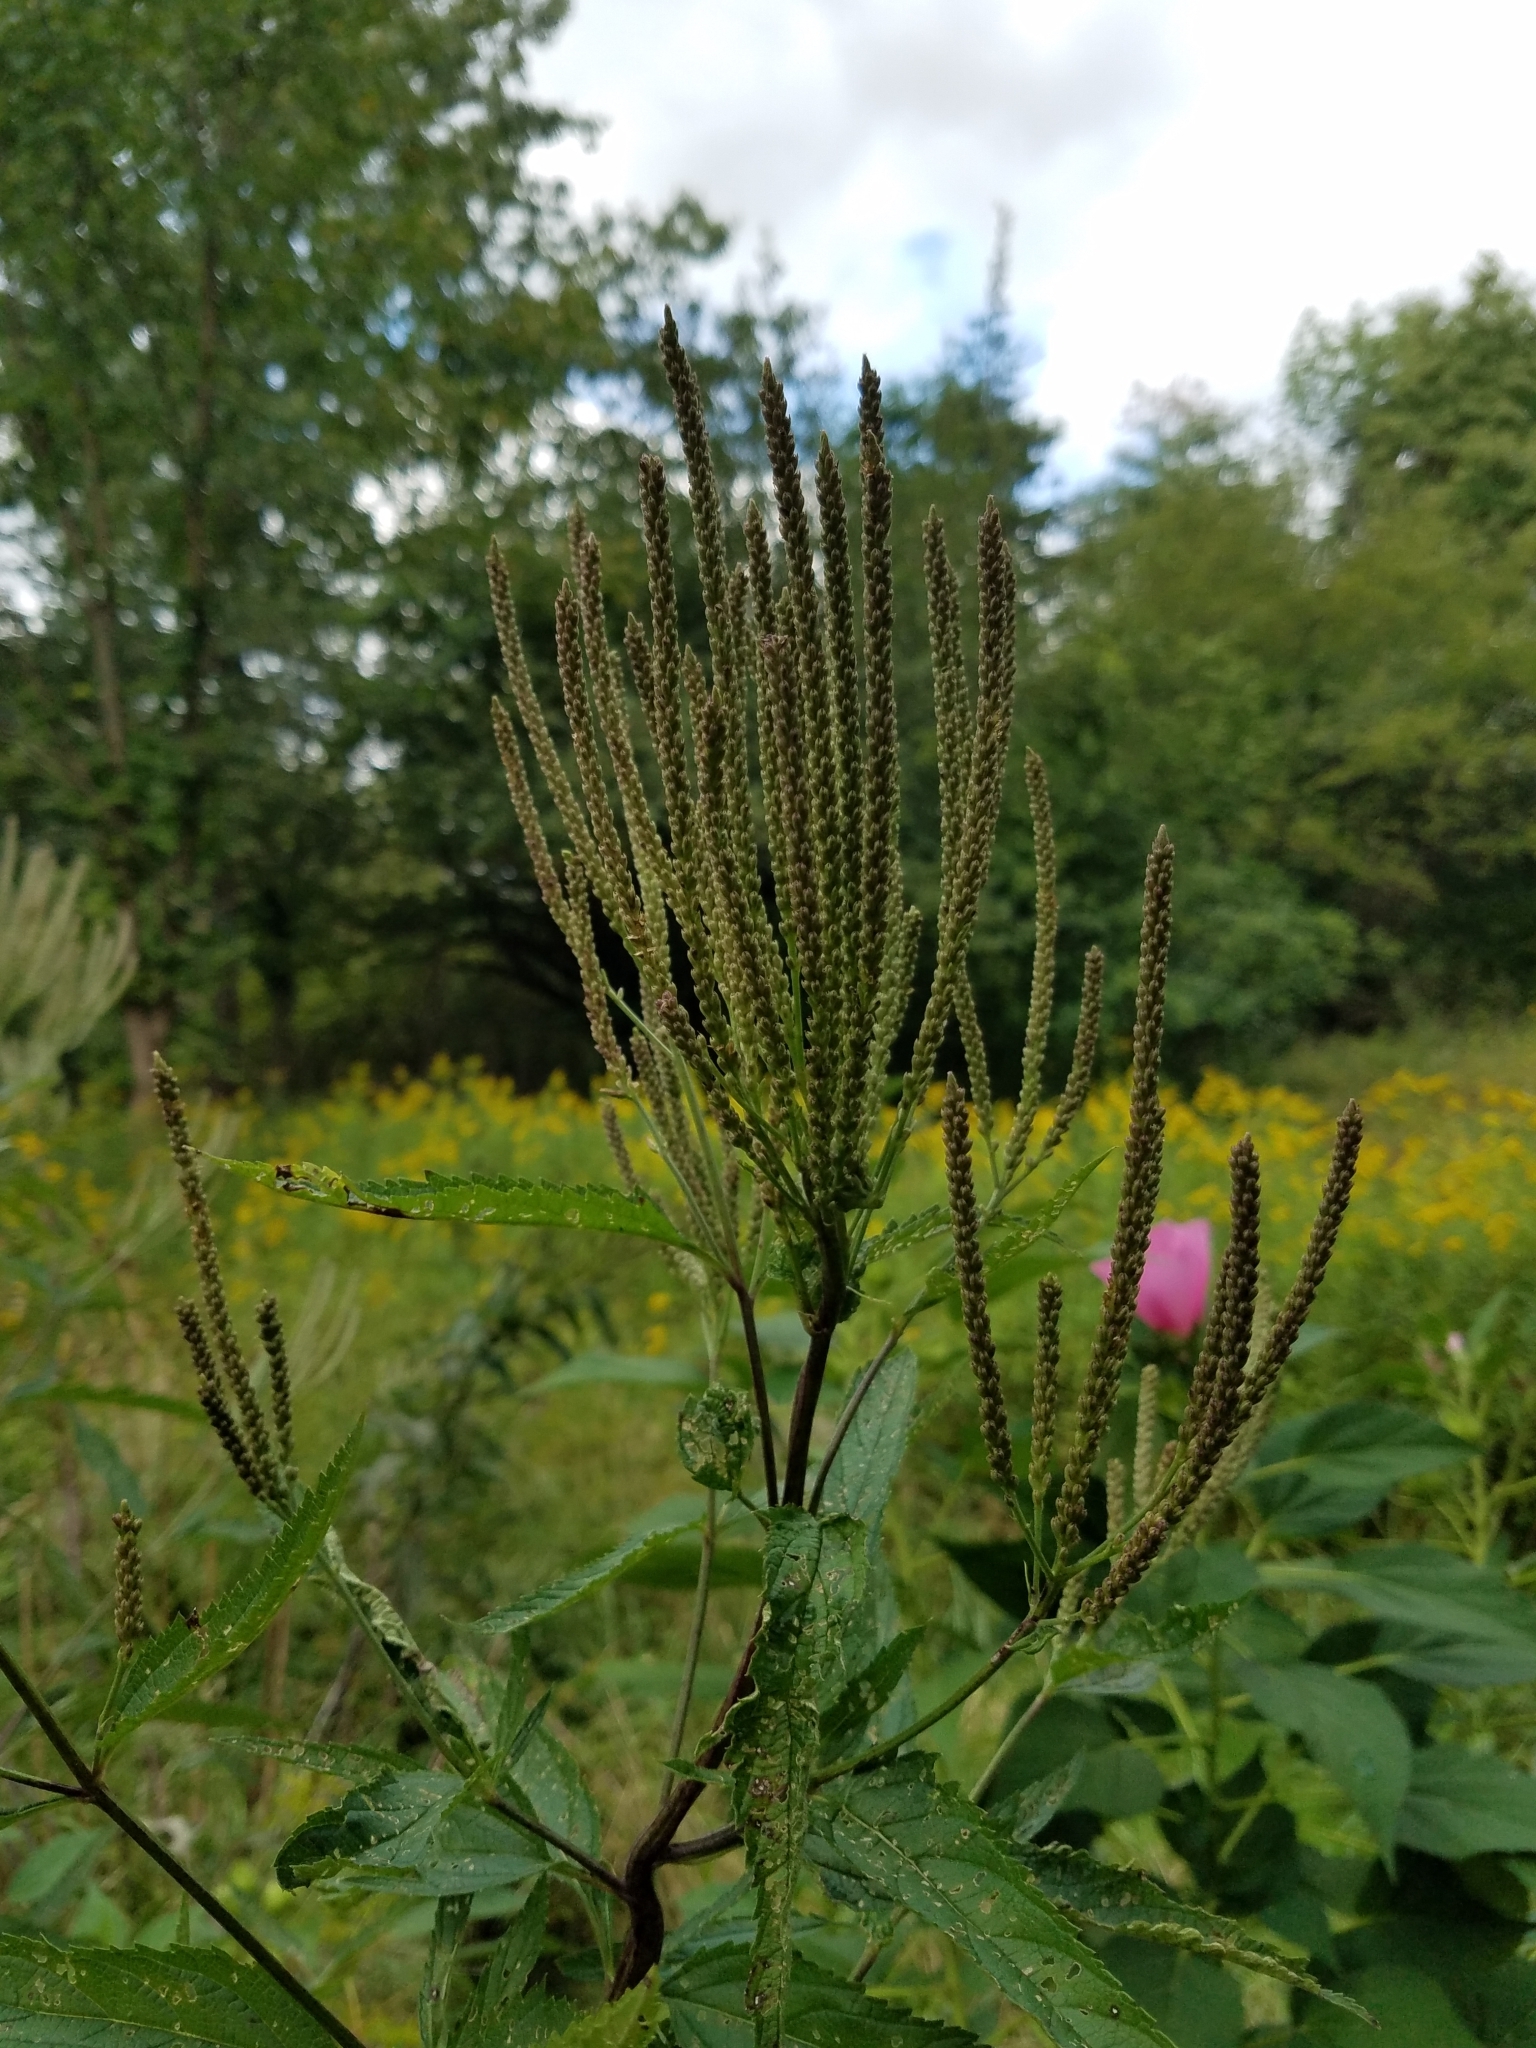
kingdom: Plantae
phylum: Tracheophyta
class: Magnoliopsida
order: Lamiales
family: Verbenaceae
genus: Verbena
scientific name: Verbena hastata
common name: American blue vervain
